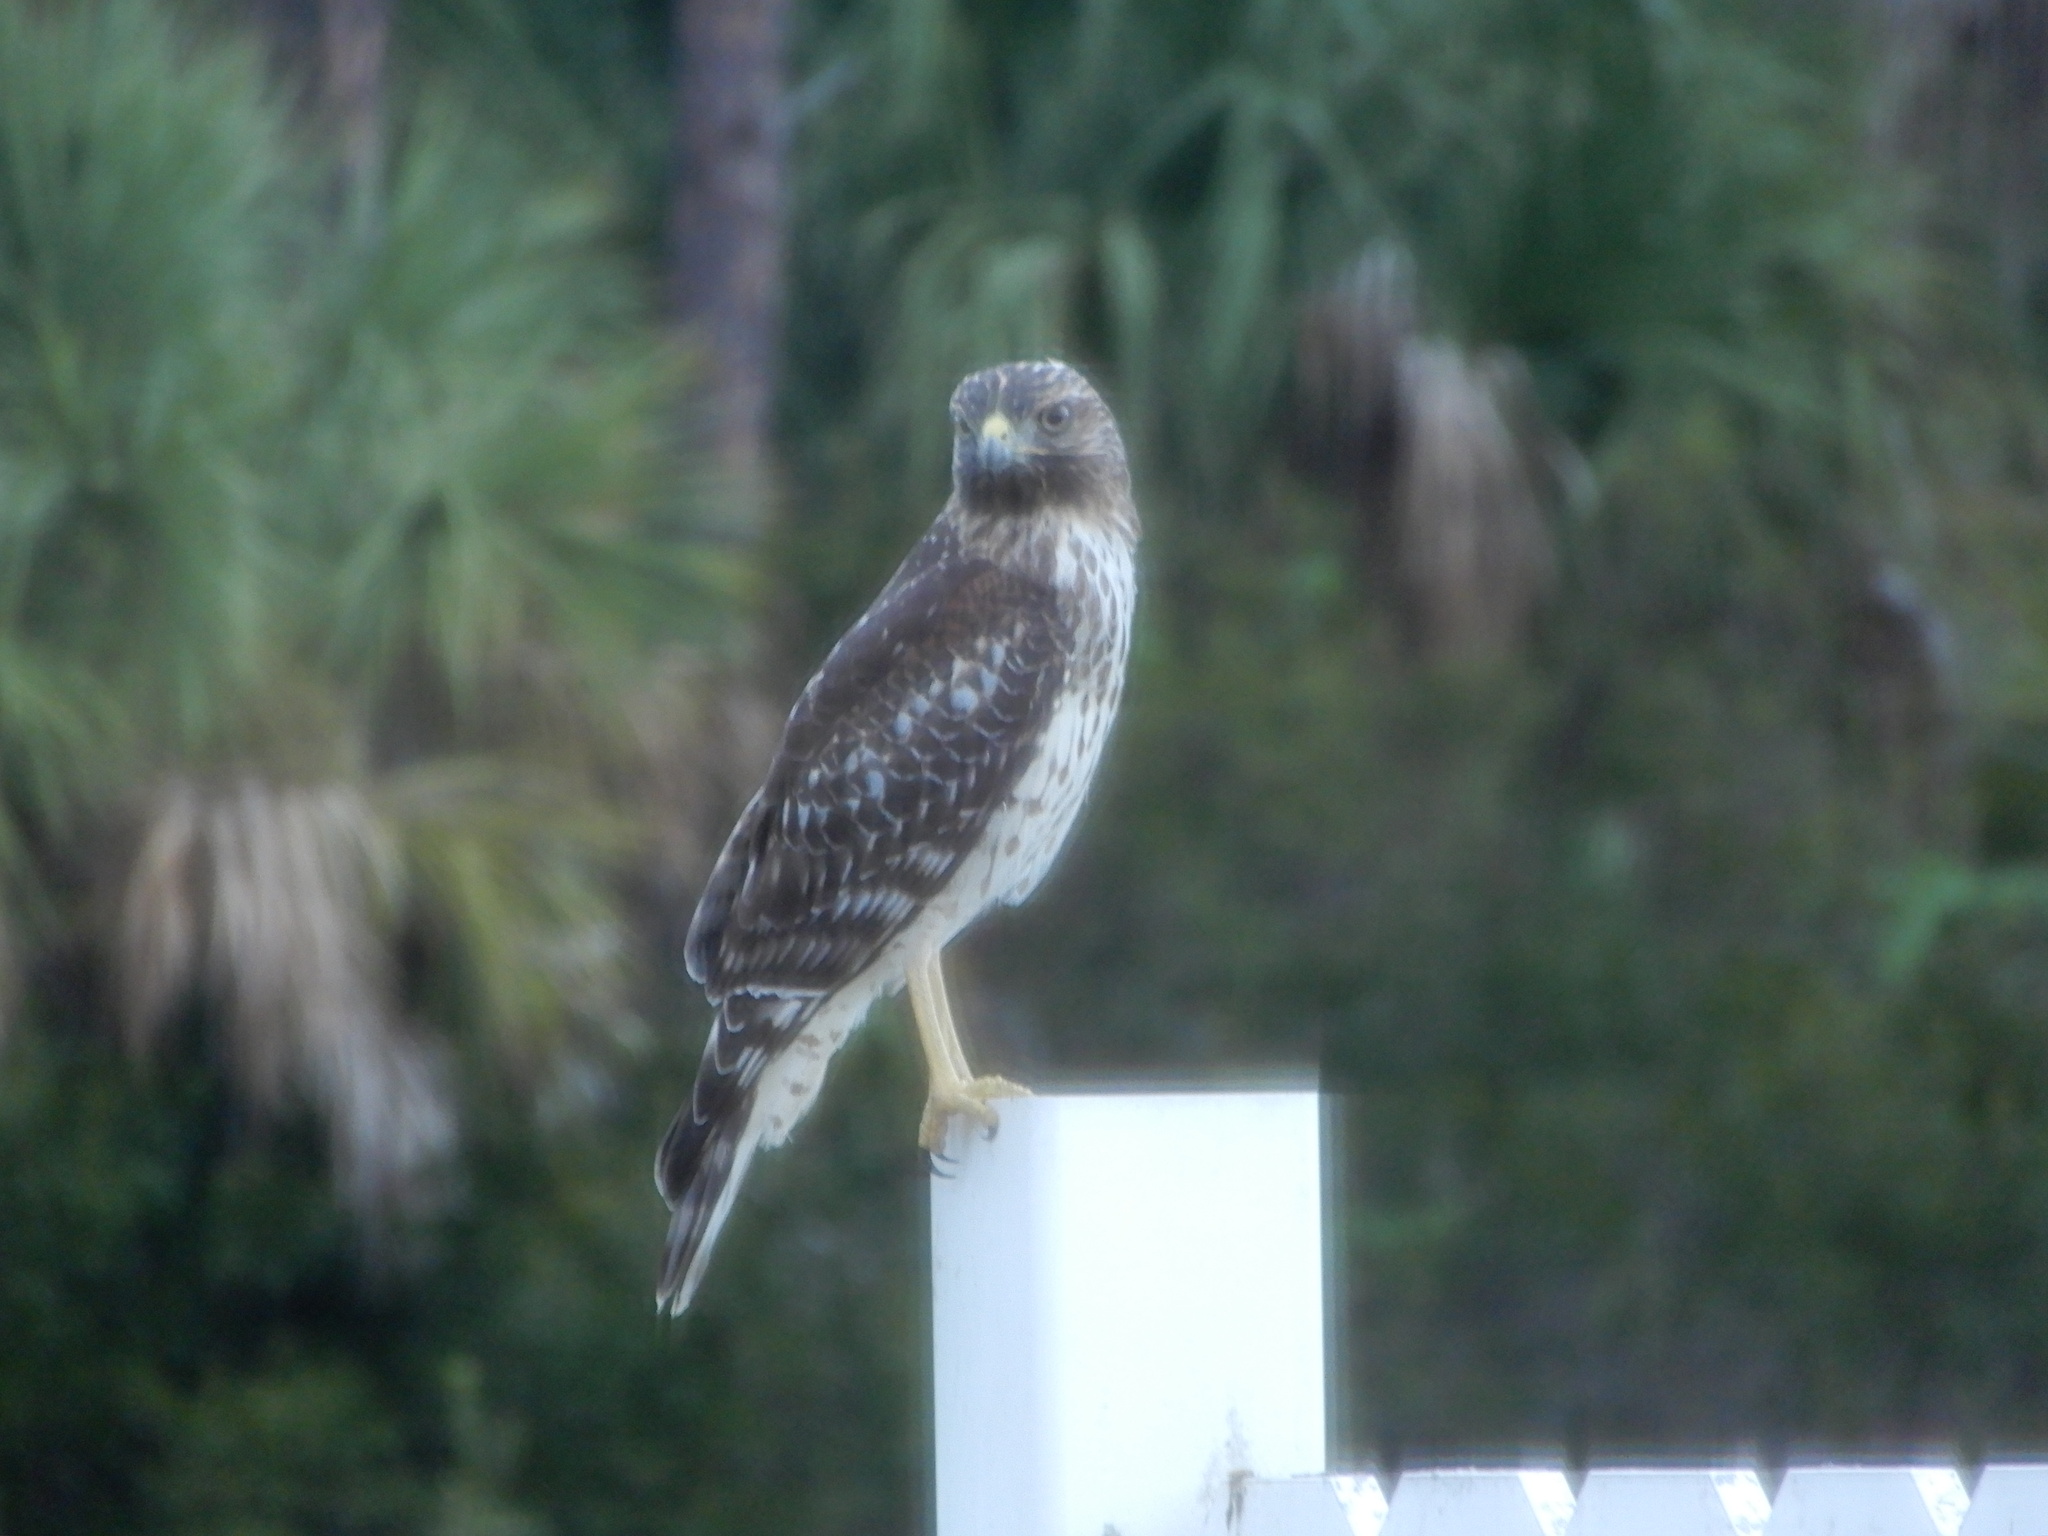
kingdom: Animalia
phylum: Chordata
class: Aves
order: Accipitriformes
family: Accipitridae
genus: Buteo
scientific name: Buteo lineatus
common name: Red-shouldered hawk
